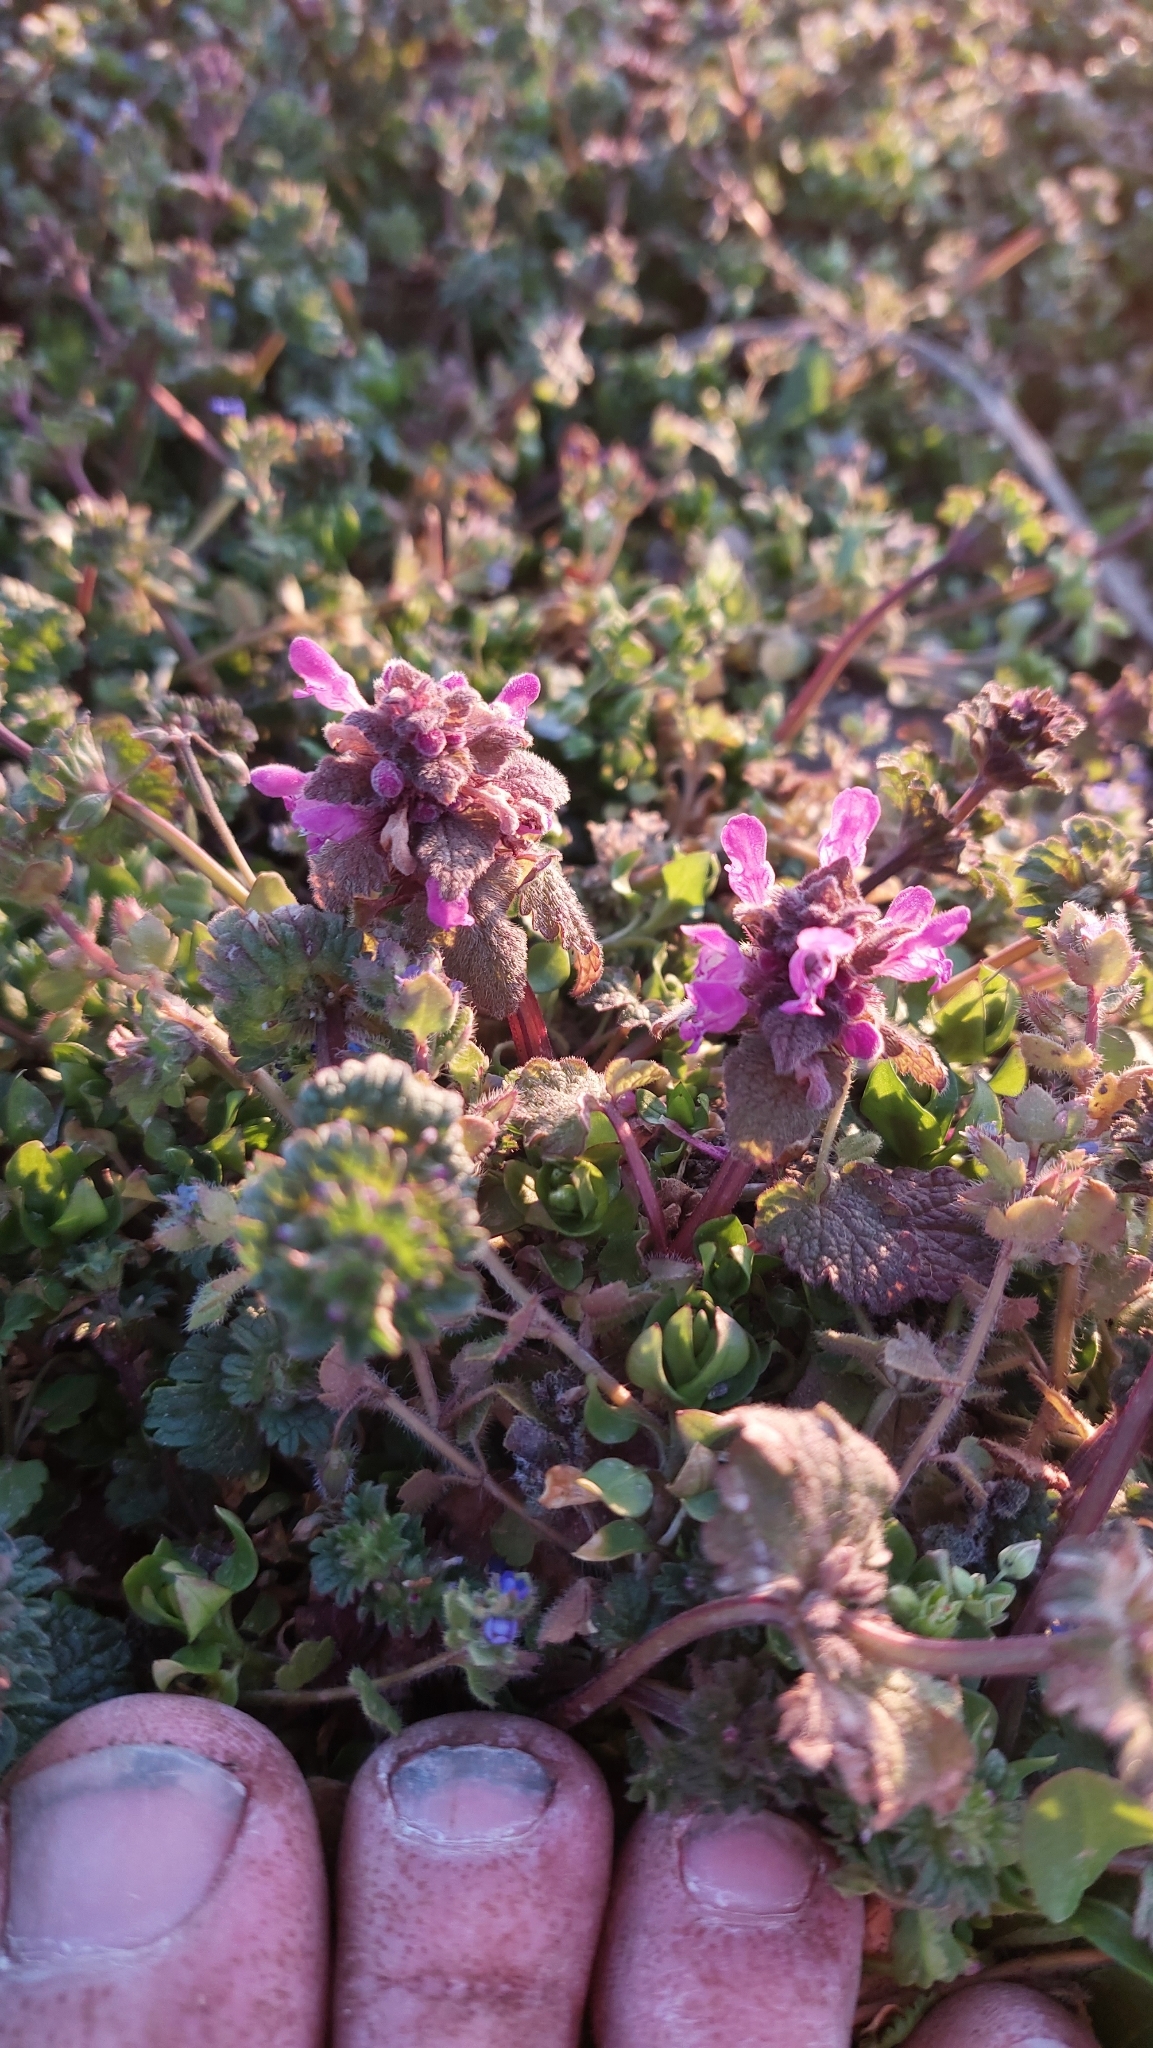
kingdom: Plantae
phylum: Tracheophyta
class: Magnoliopsida
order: Lamiales
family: Lamiaceae
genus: Lamium
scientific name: Lamium amplexicaule
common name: Henbit dead-nettle
